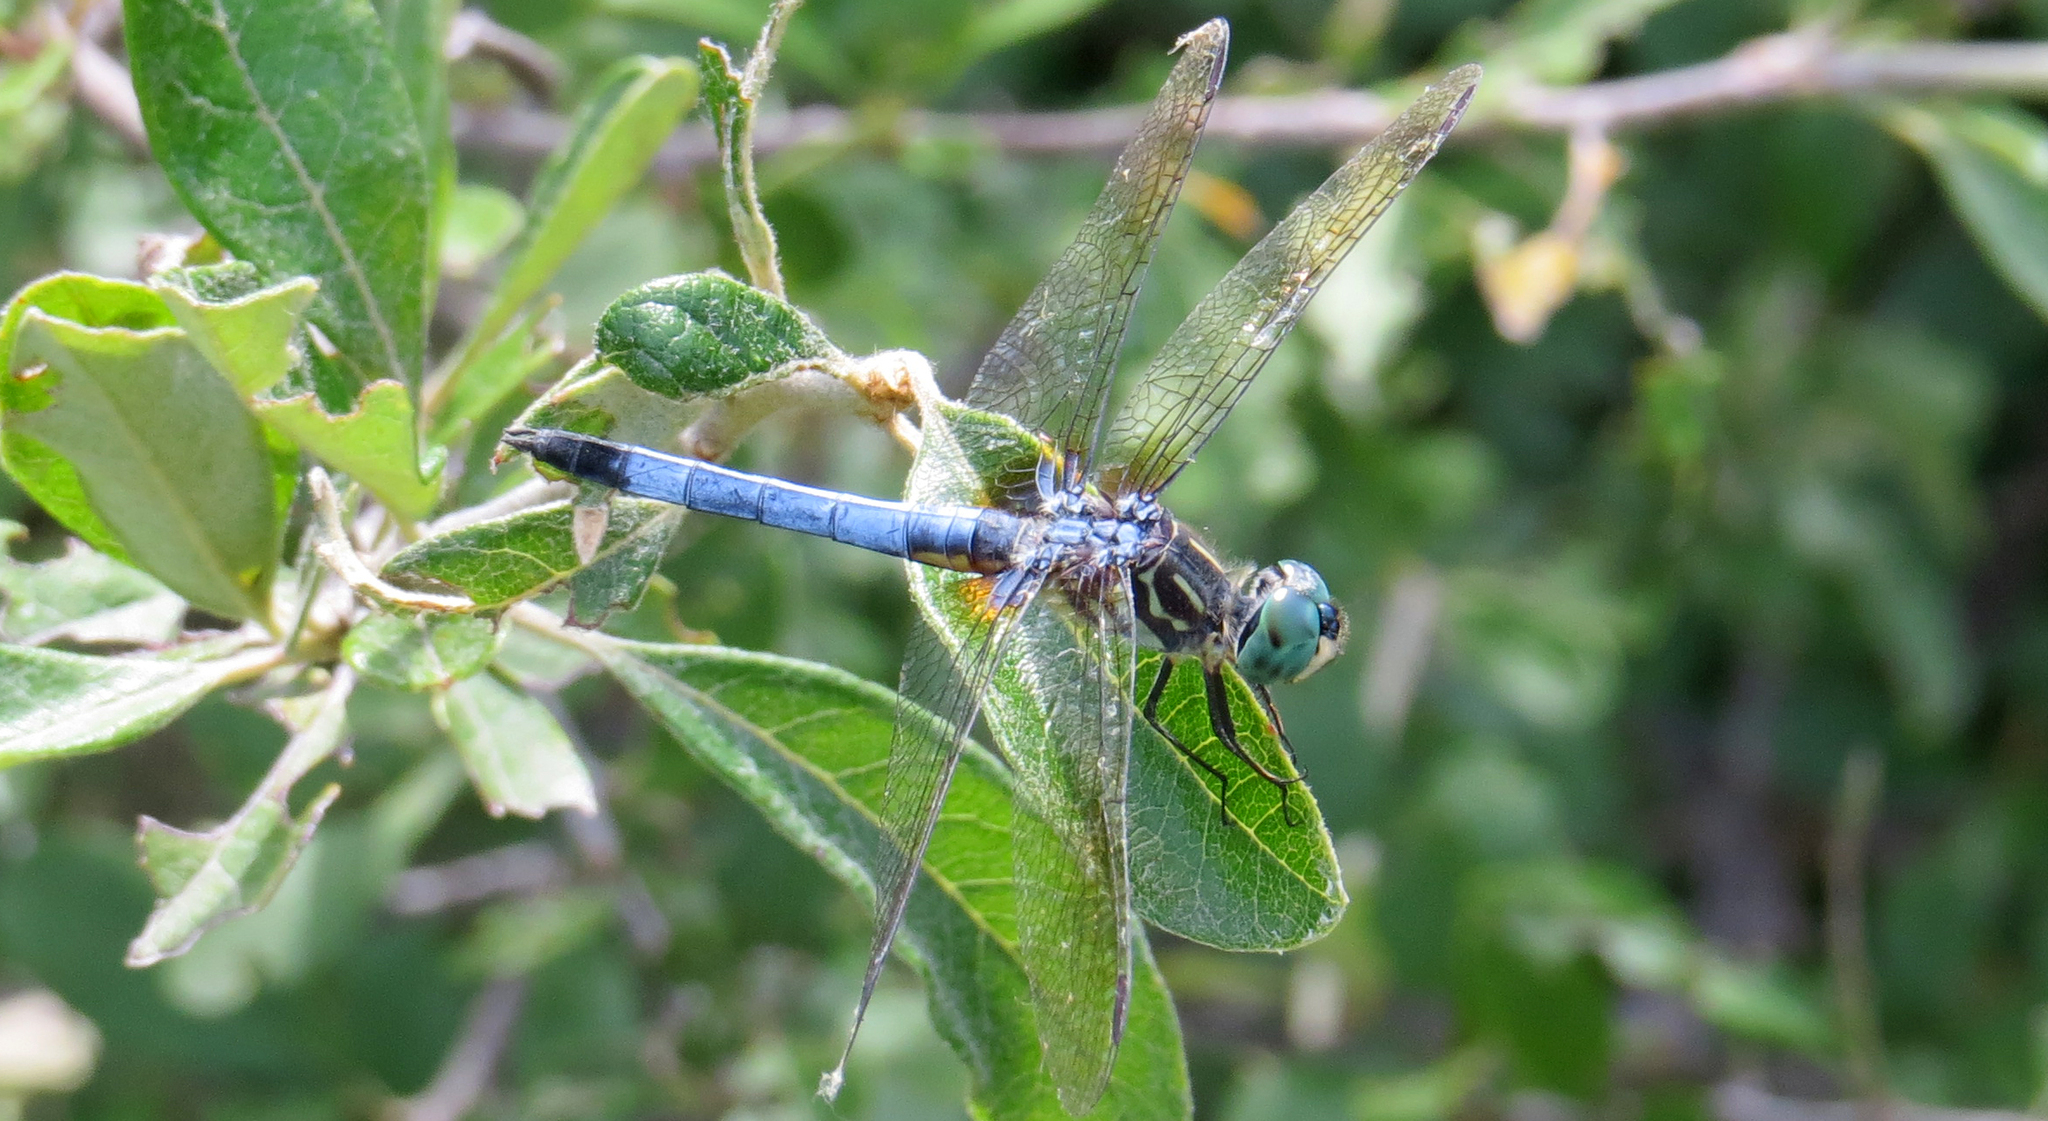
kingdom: Animalia
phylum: Arthropoda
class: Insecta
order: Odonata
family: Libellulidae
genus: Pachydiplax
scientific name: Pachydiplax longipennis
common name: Blue dasher
